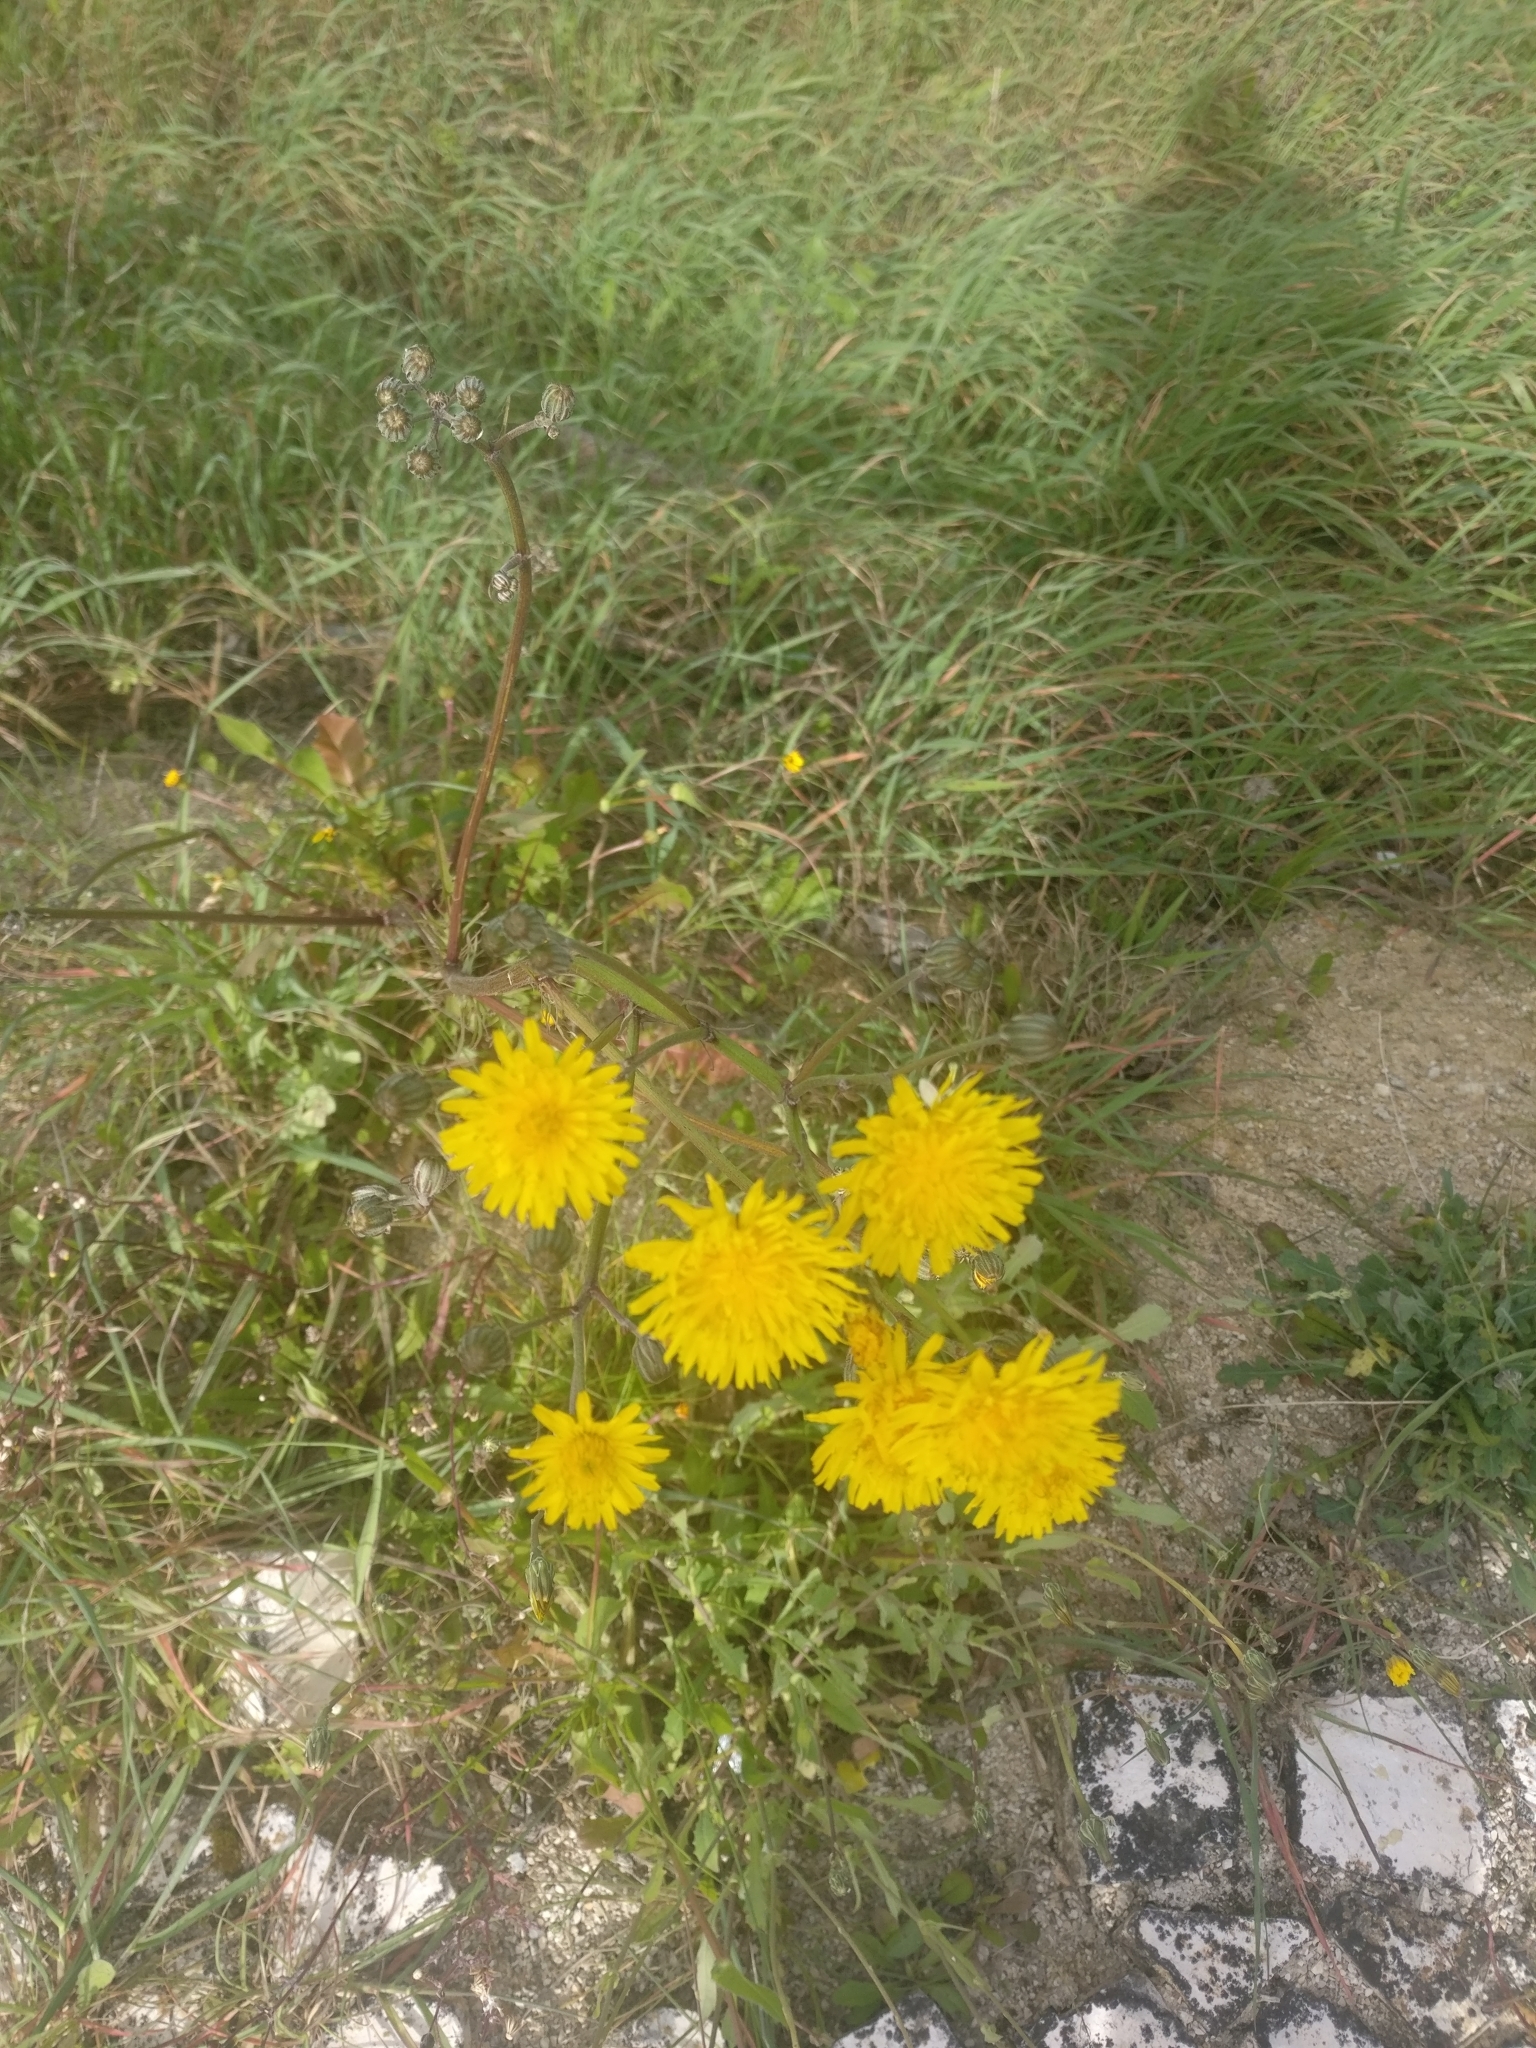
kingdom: Plantae
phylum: Tracheophyta
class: Magnoliopsida
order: Asterales
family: Asteraceae
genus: Taraxacum
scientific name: Taraxacum officinale
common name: Common dandelion
